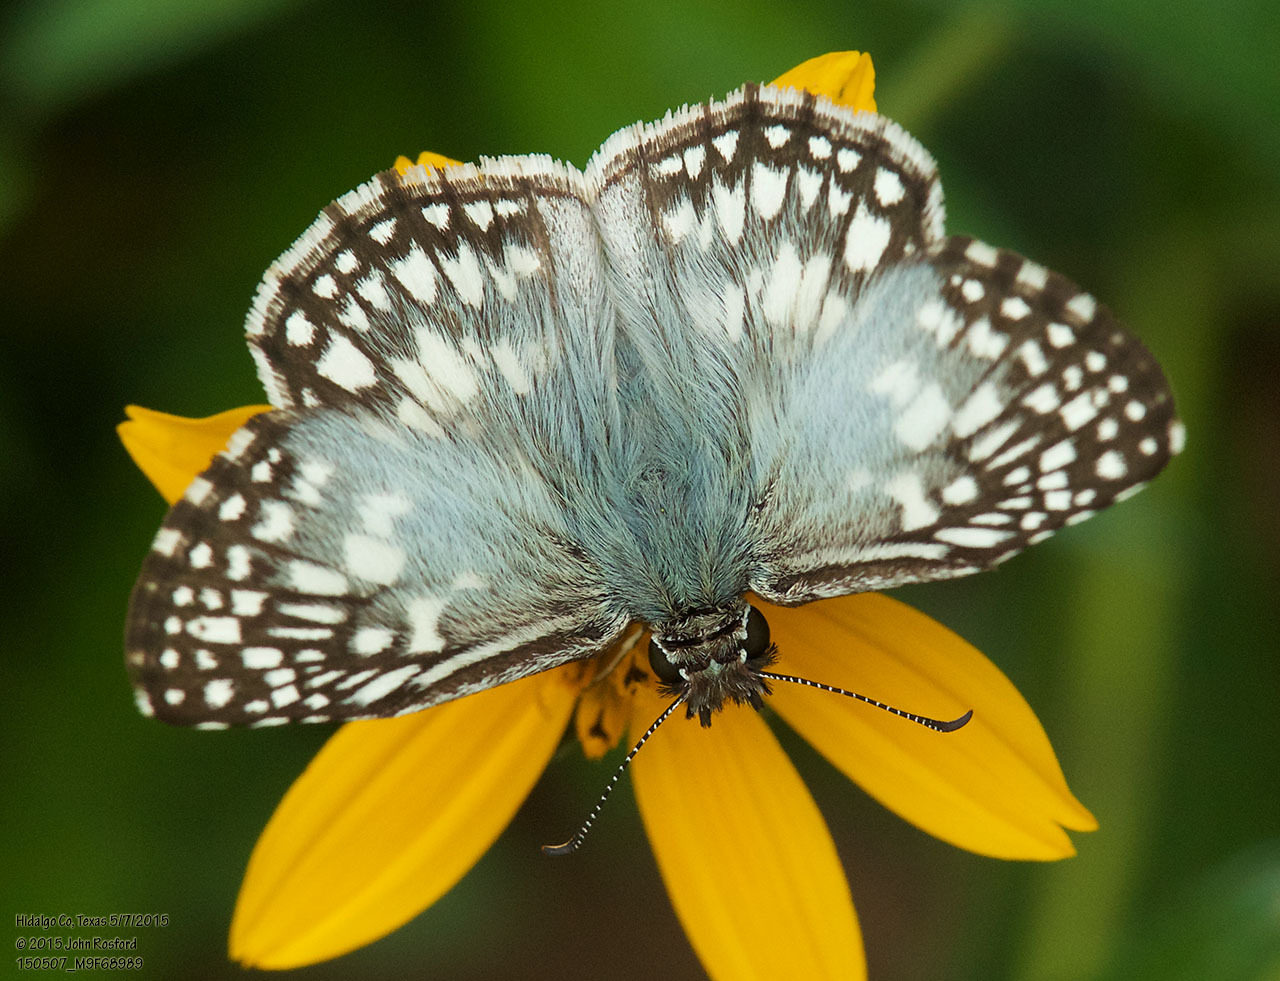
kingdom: Animalia
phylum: Arthropoda
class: Insecta
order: Lepidoptera
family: Hesperiidae
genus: Pyrgus
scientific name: Pyrgus oileus
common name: Tropical checkered-skipper
